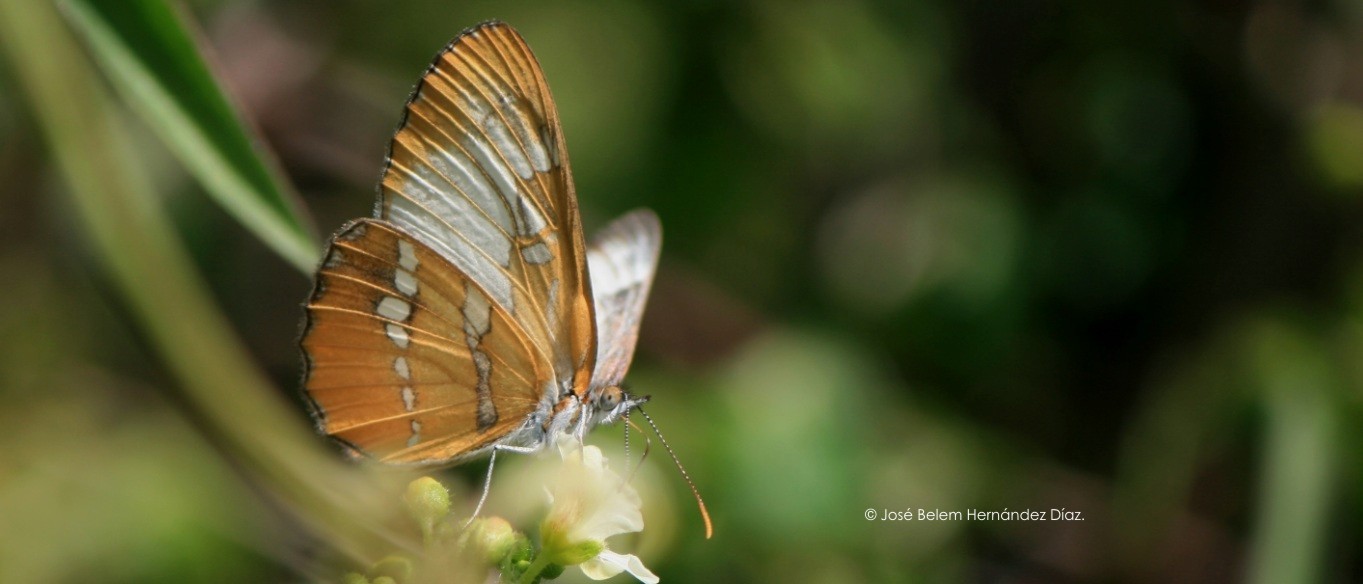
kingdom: Animalia
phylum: Arthropoda
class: Insecta
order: Lepidoptera
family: Nymphalidae
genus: Mestra
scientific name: Mestra amymone
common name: Common mestra
